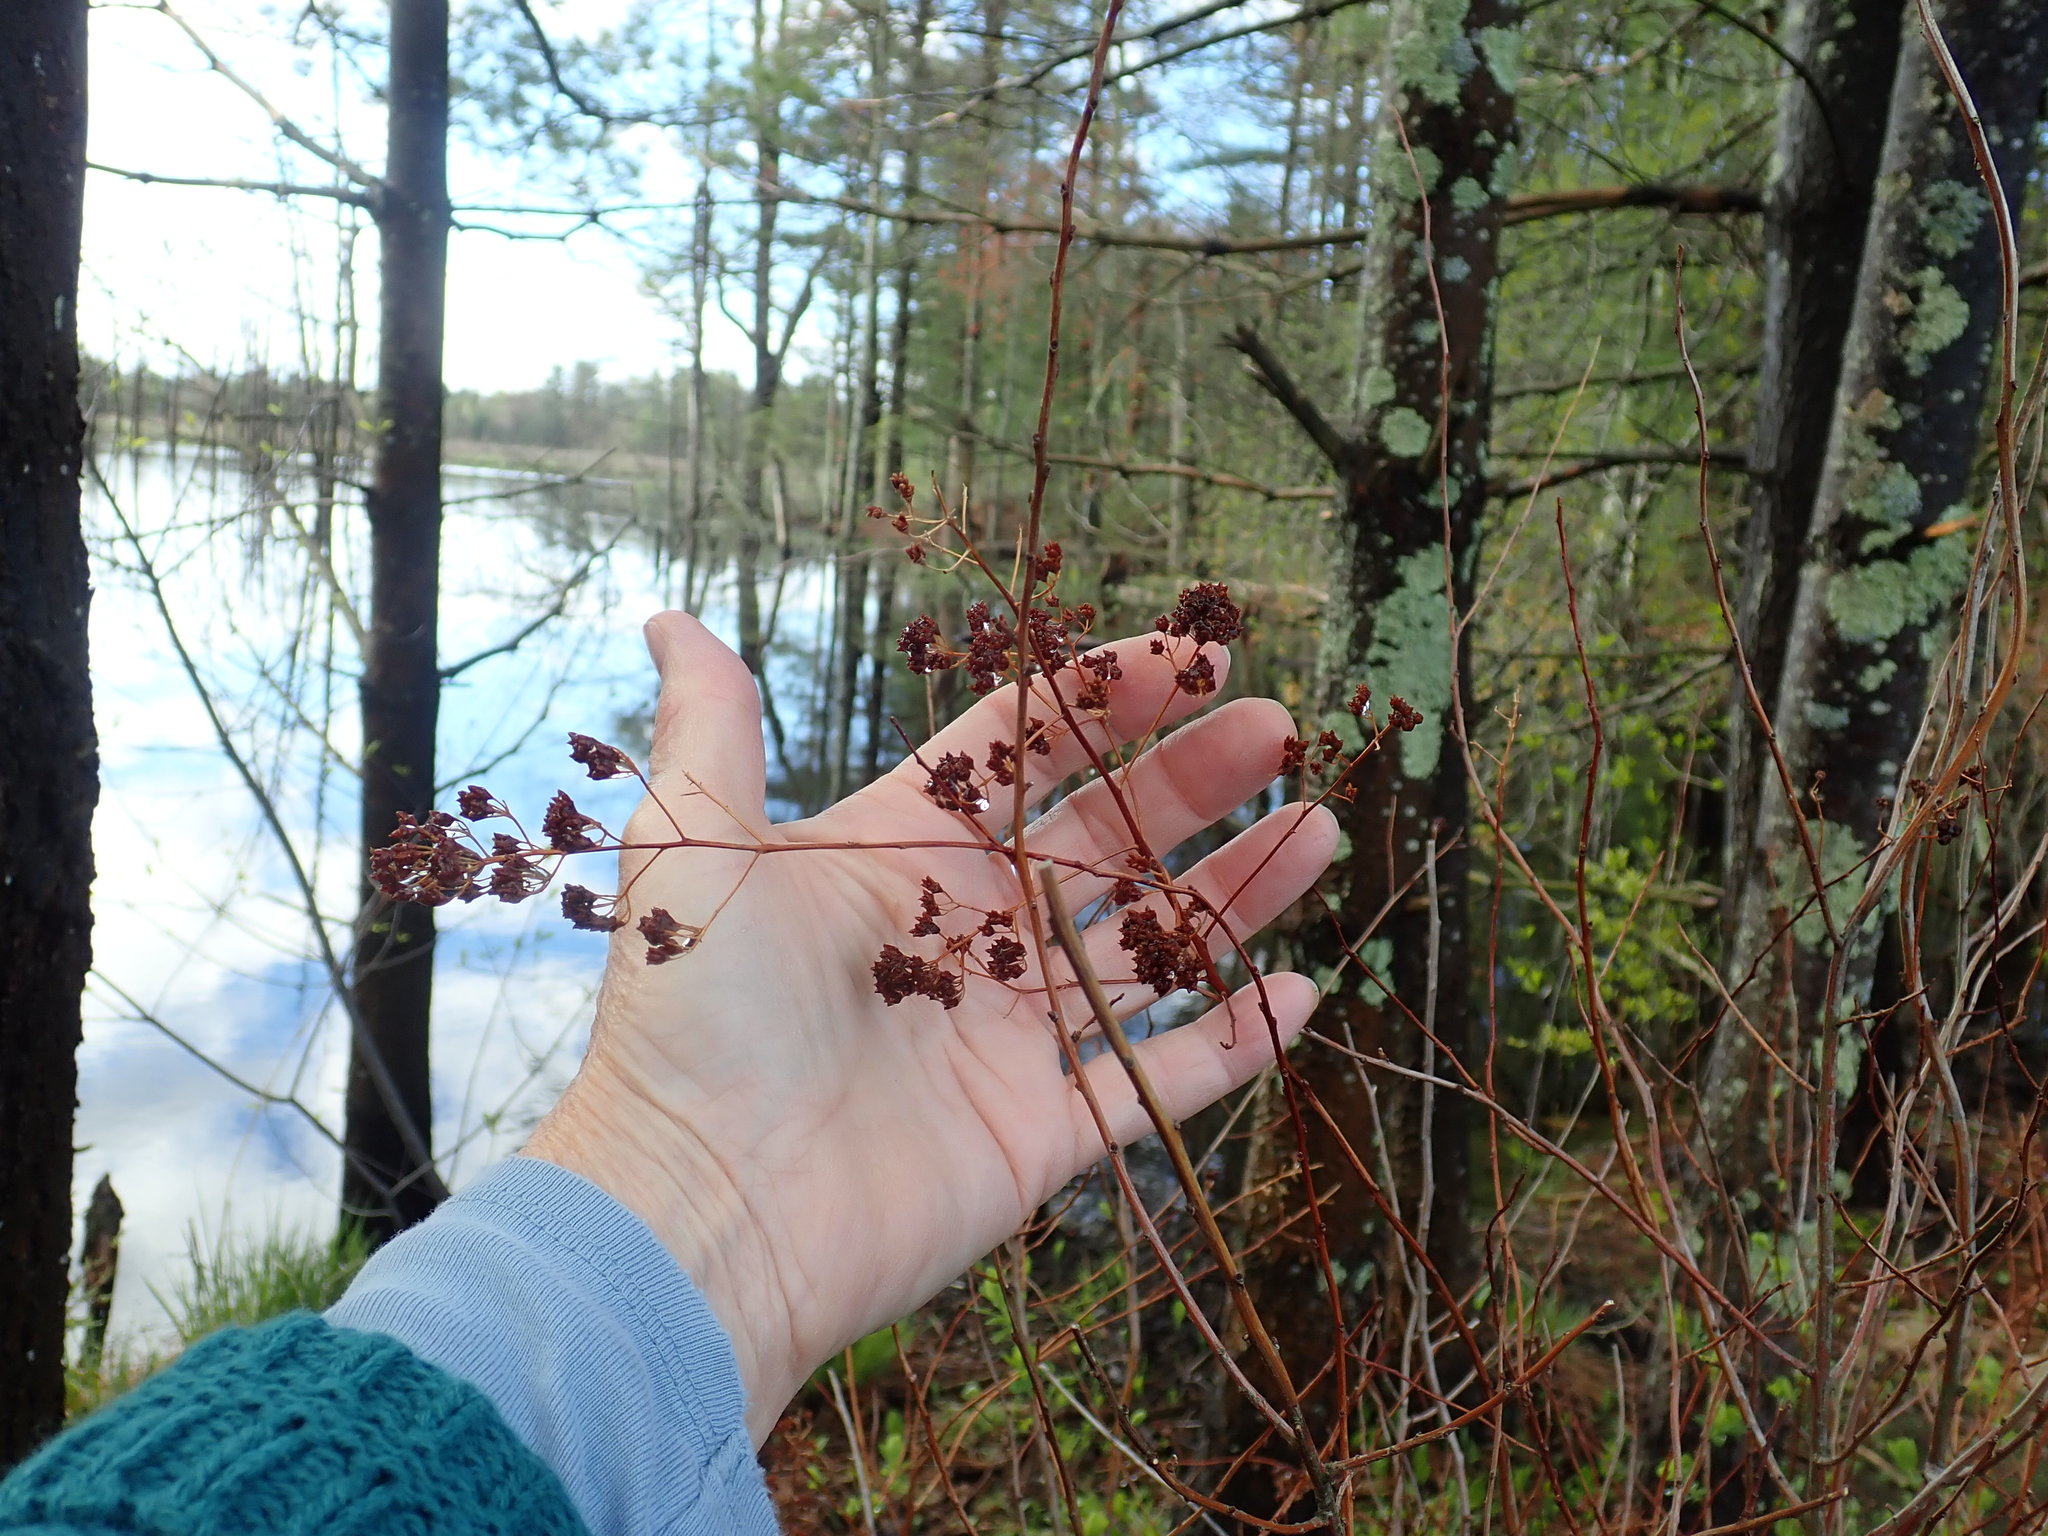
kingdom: Plantae
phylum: Tracheophyta
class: Magnoliopsida
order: Rosales
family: Rosaceae
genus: Spiraea
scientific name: Spiraea alba
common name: Pale bridewort
